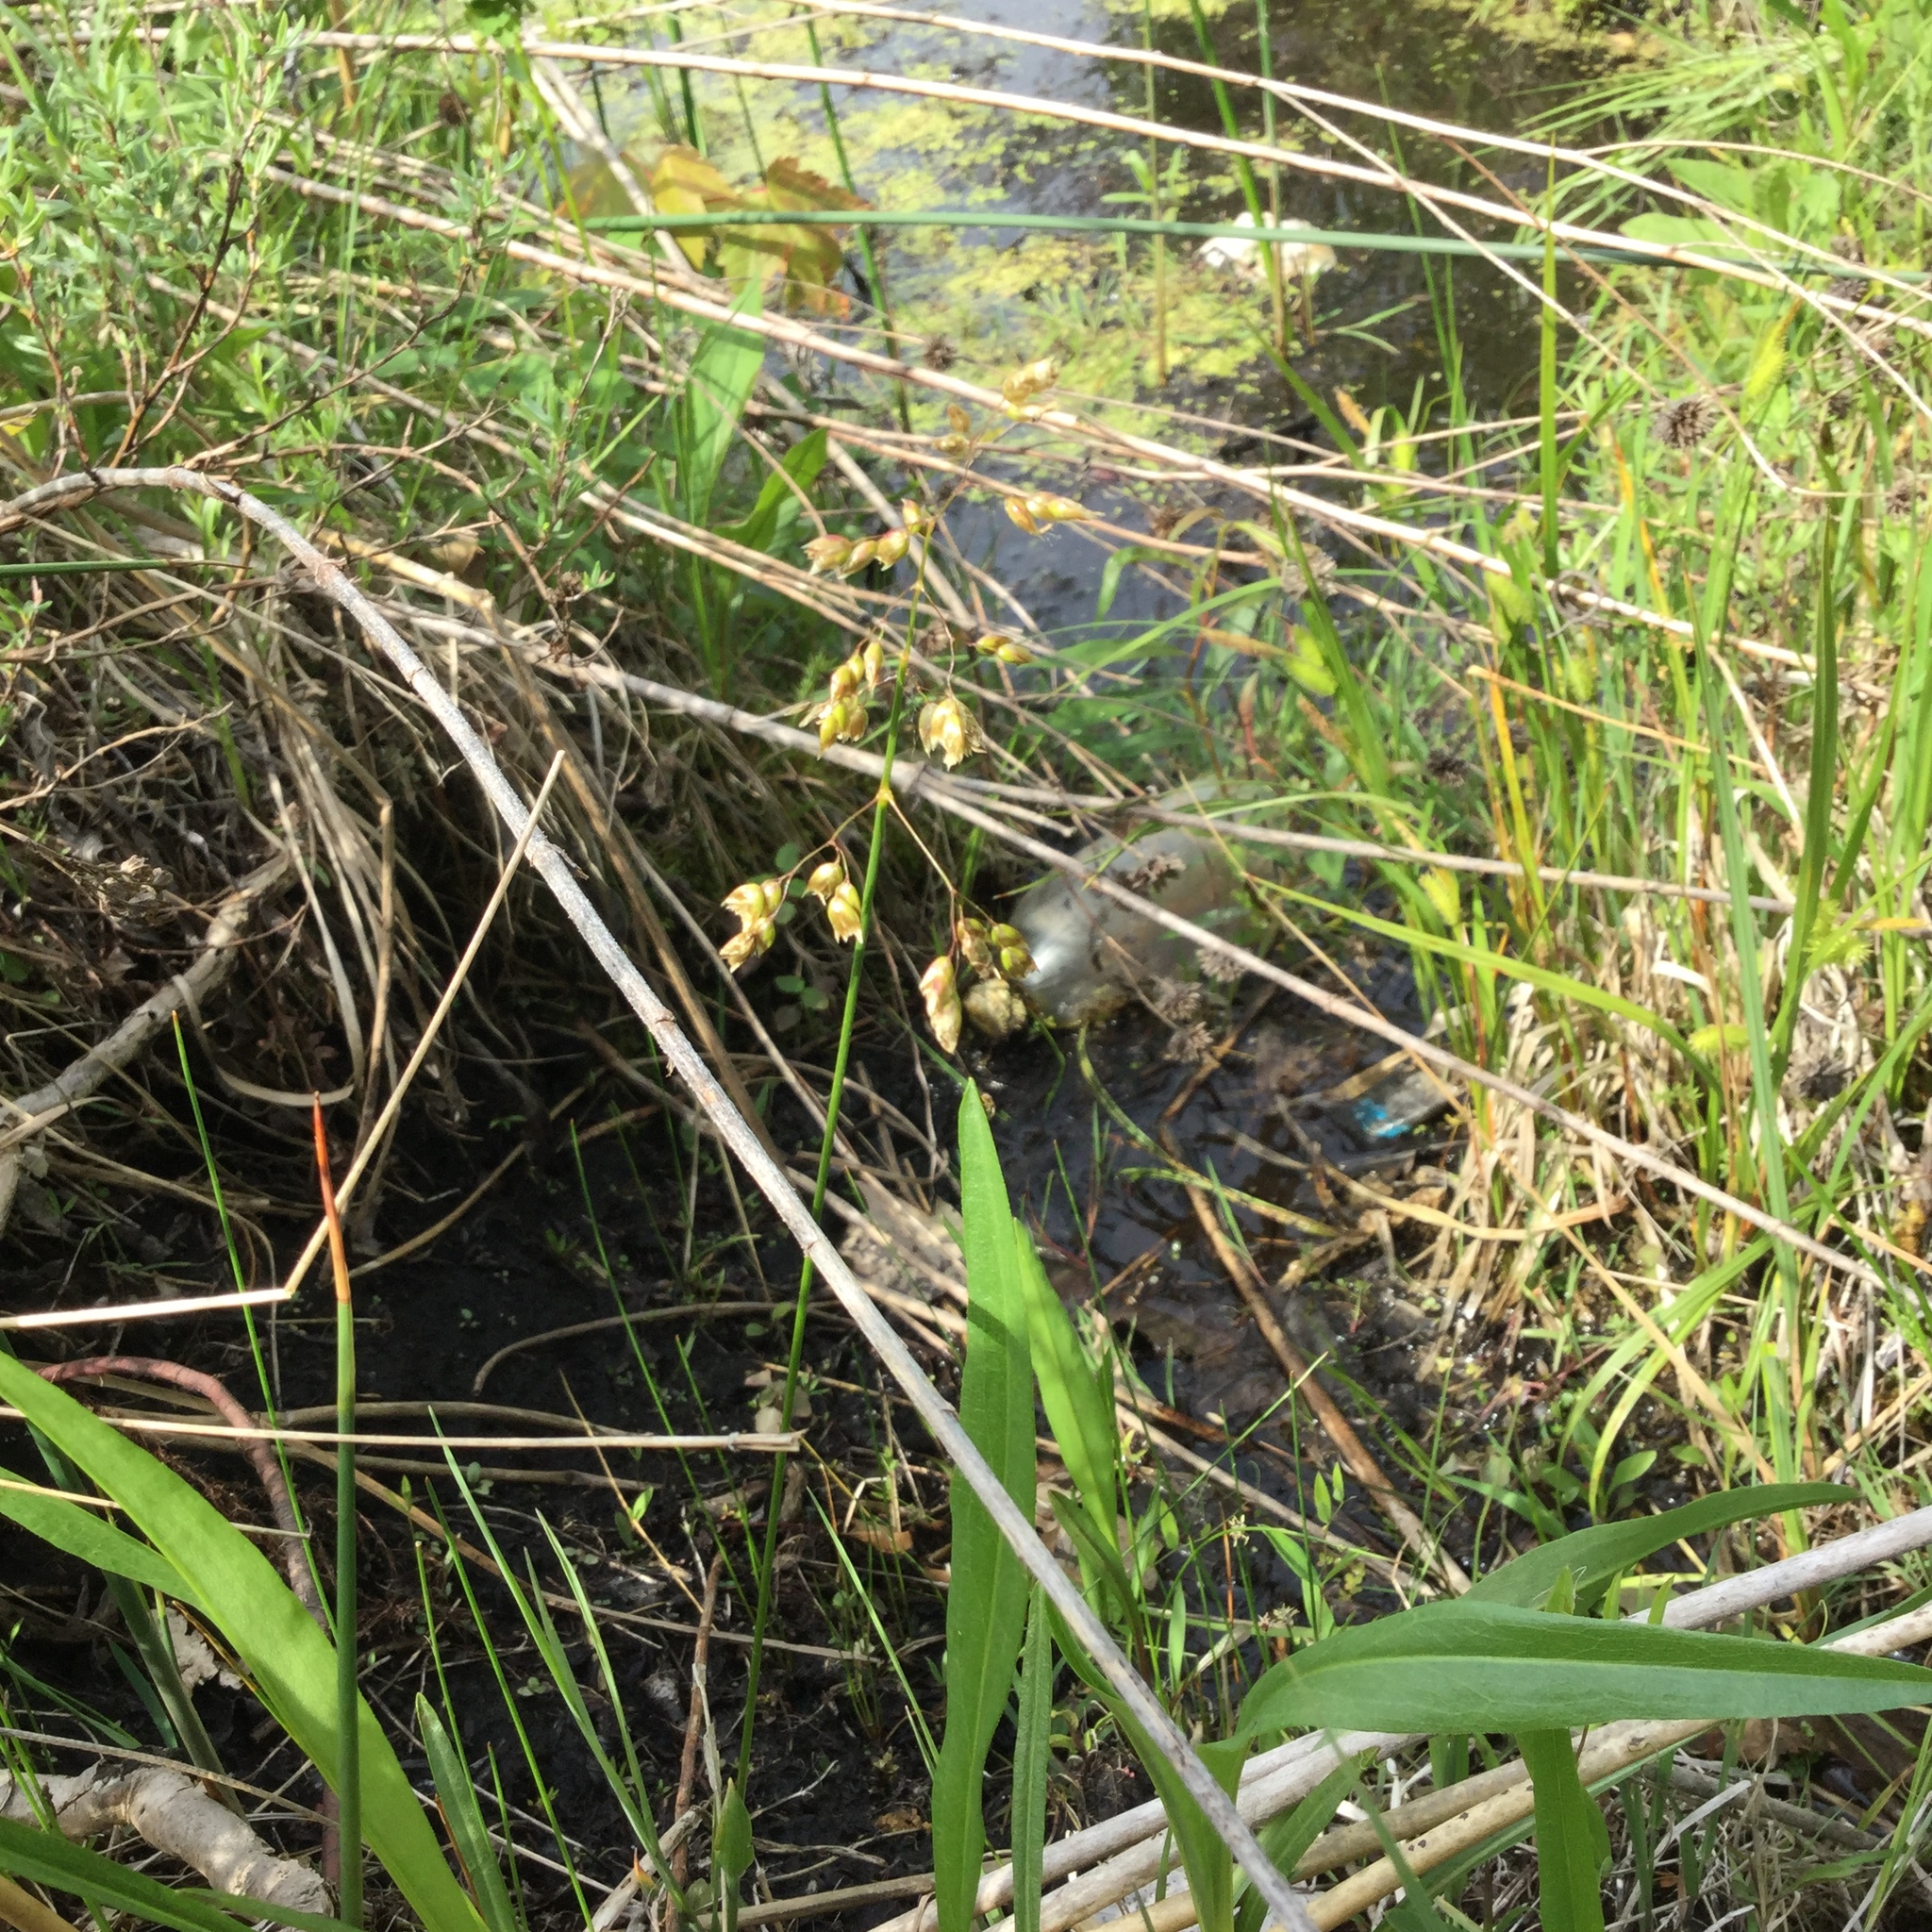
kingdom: Plantae
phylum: Tracheophyta
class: Liliopsida
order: Poales
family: Poaceae
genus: Anthoxanthum
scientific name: Anthoxanthum nitens
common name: Holy grass
